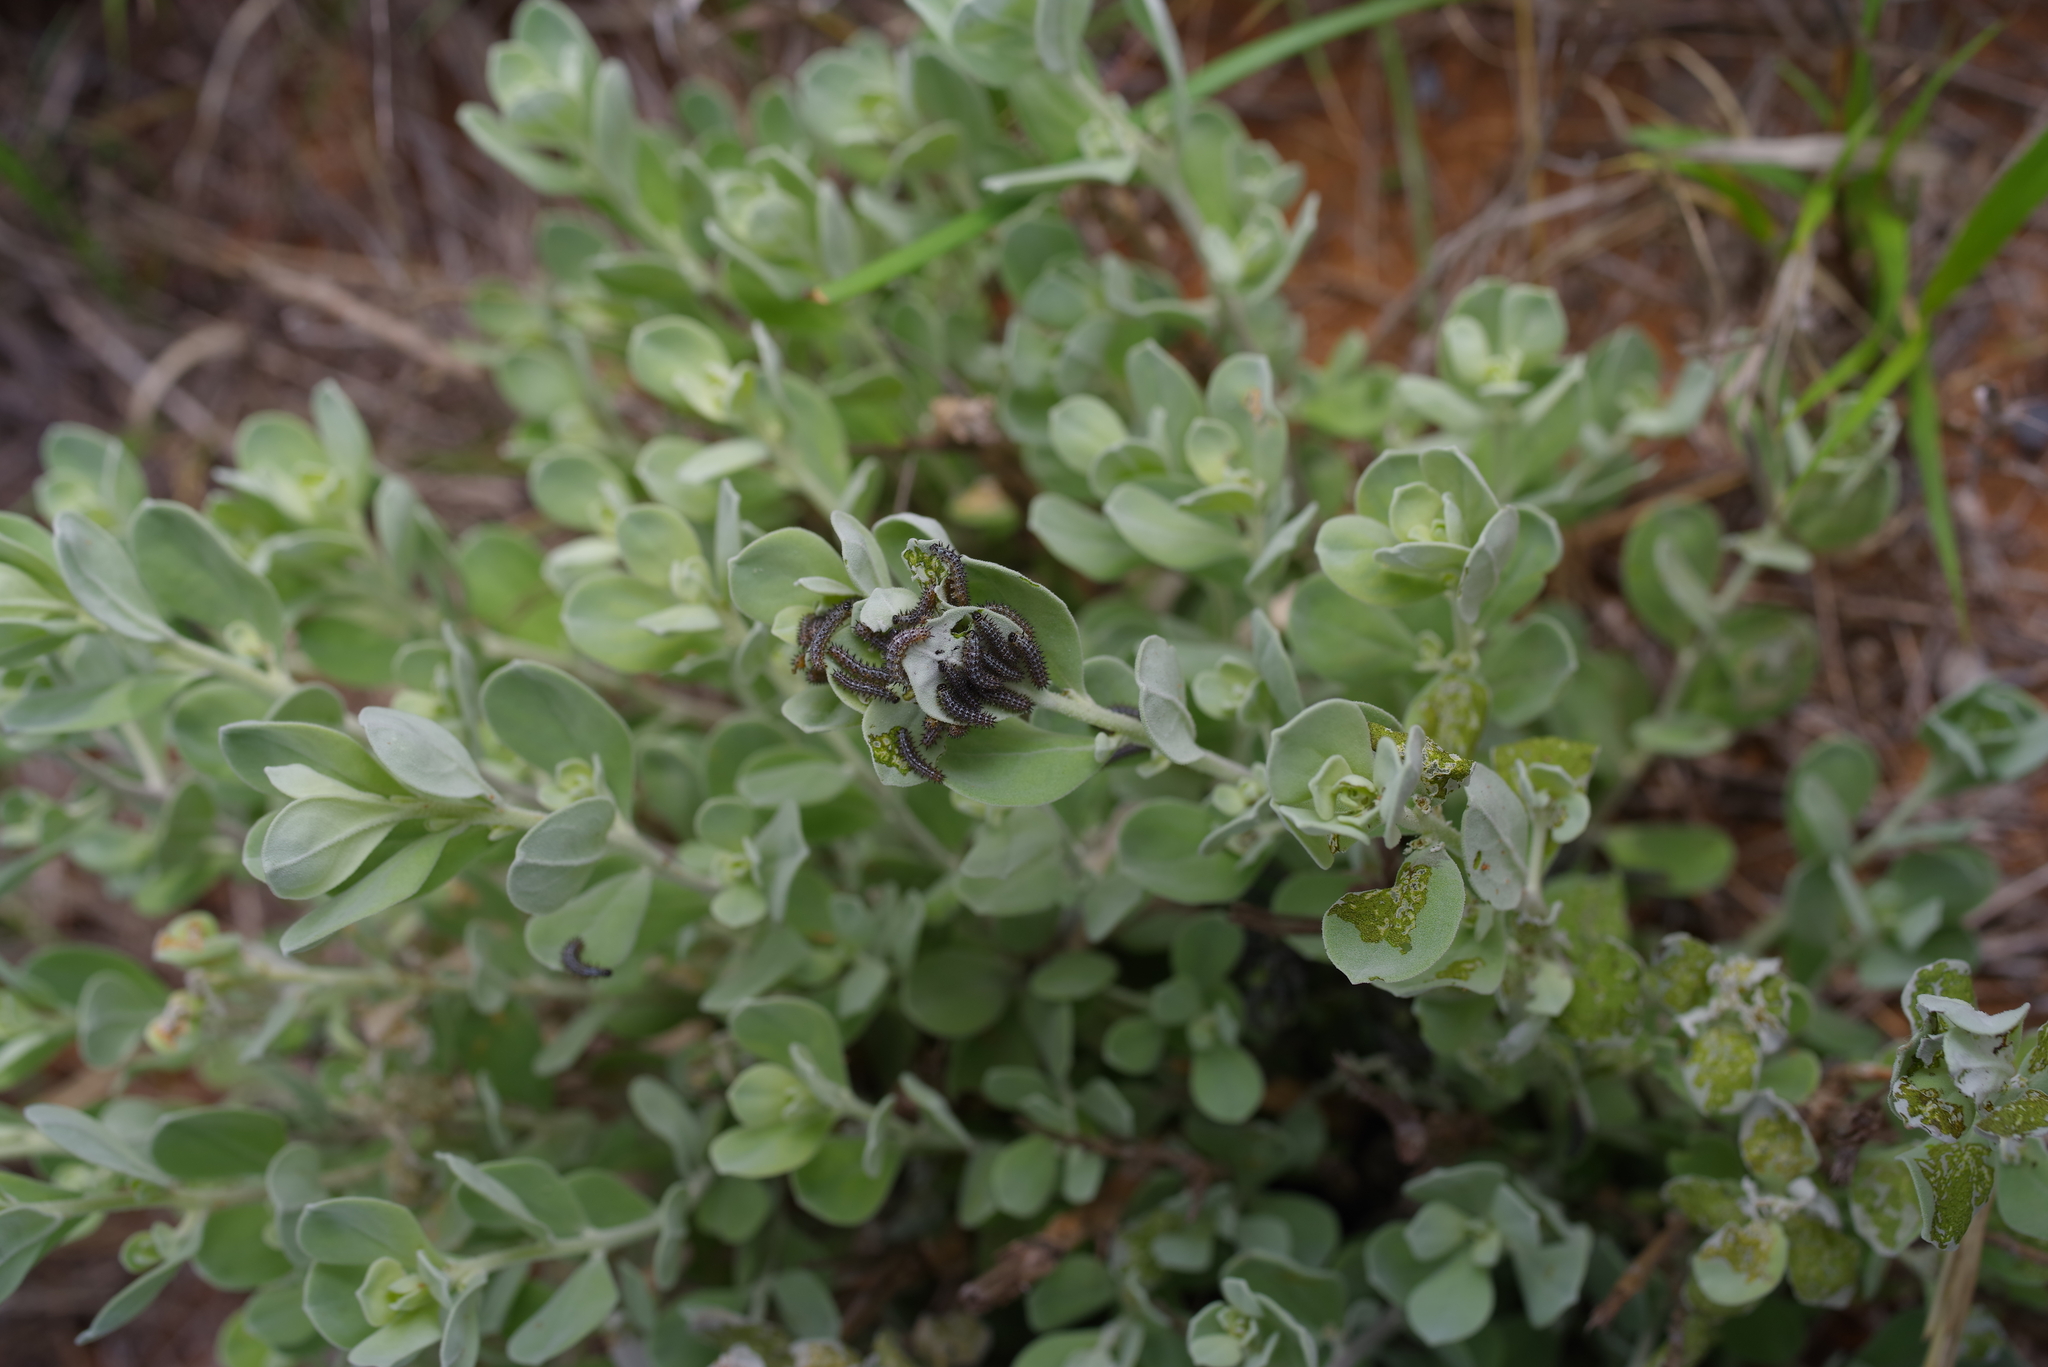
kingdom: Plantae
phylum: Tracheophyta
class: Magnoliopsida
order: Lamiales
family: Scrophulariaceae
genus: Leucophyllum
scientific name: Leucophyllum frutescens
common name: Texas silverleaf
